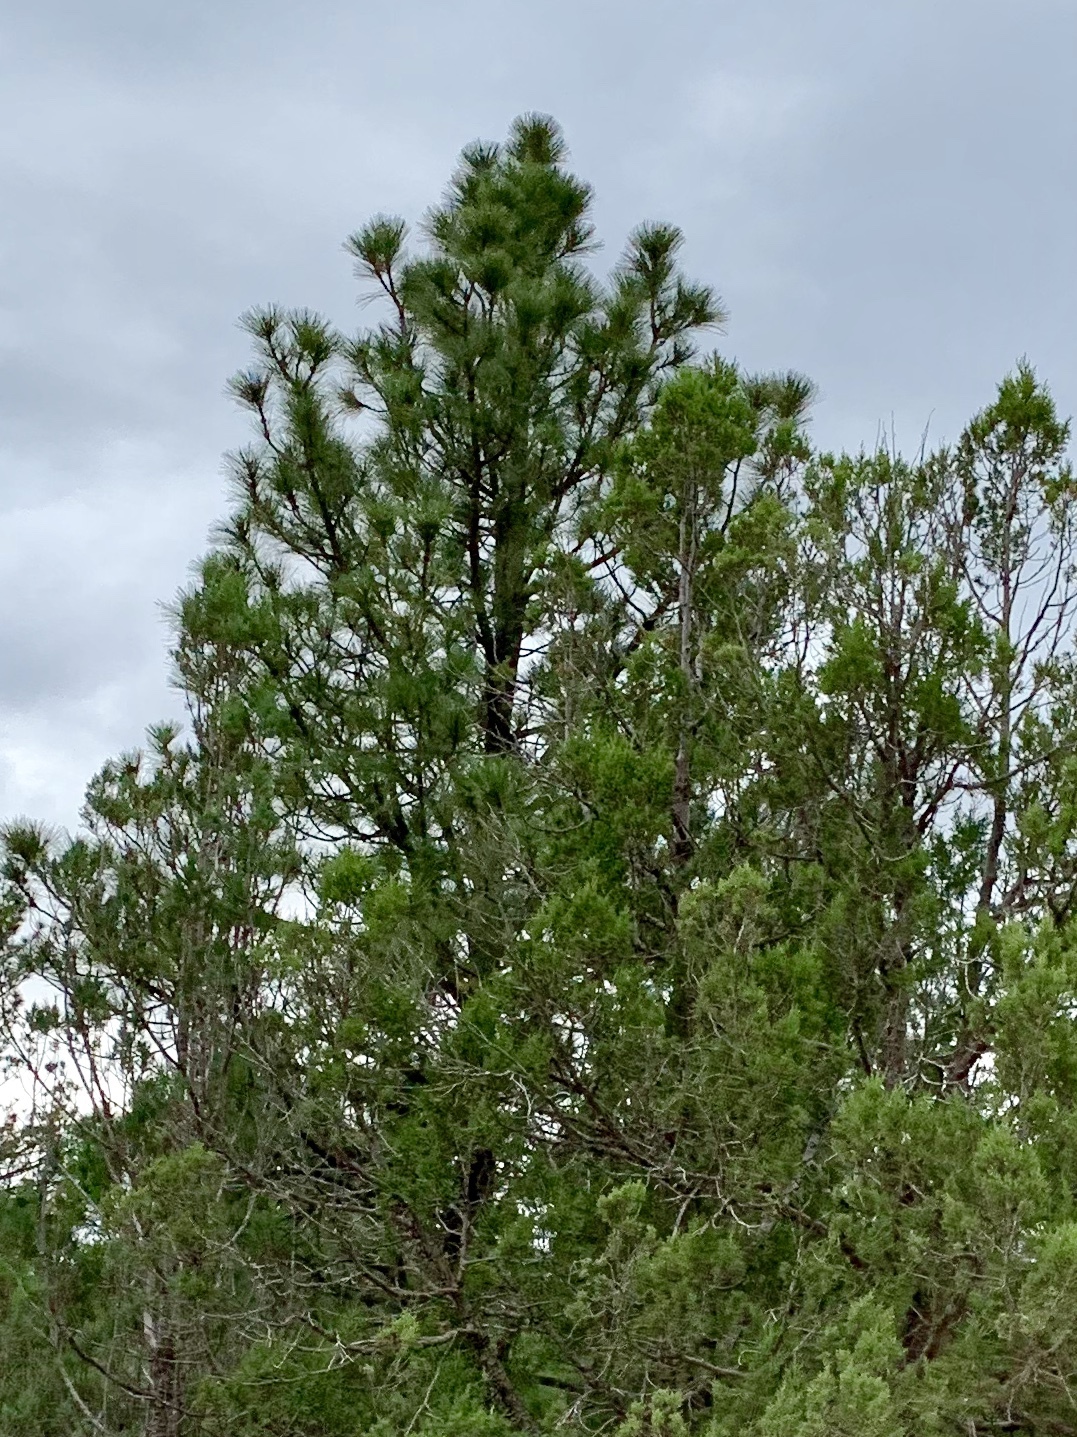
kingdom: Plantae
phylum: Tracheophyta
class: Pinopsida
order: Pinales
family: Pinaceae
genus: Pinus
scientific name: Pinus ponderosa
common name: Western yellow-pine
